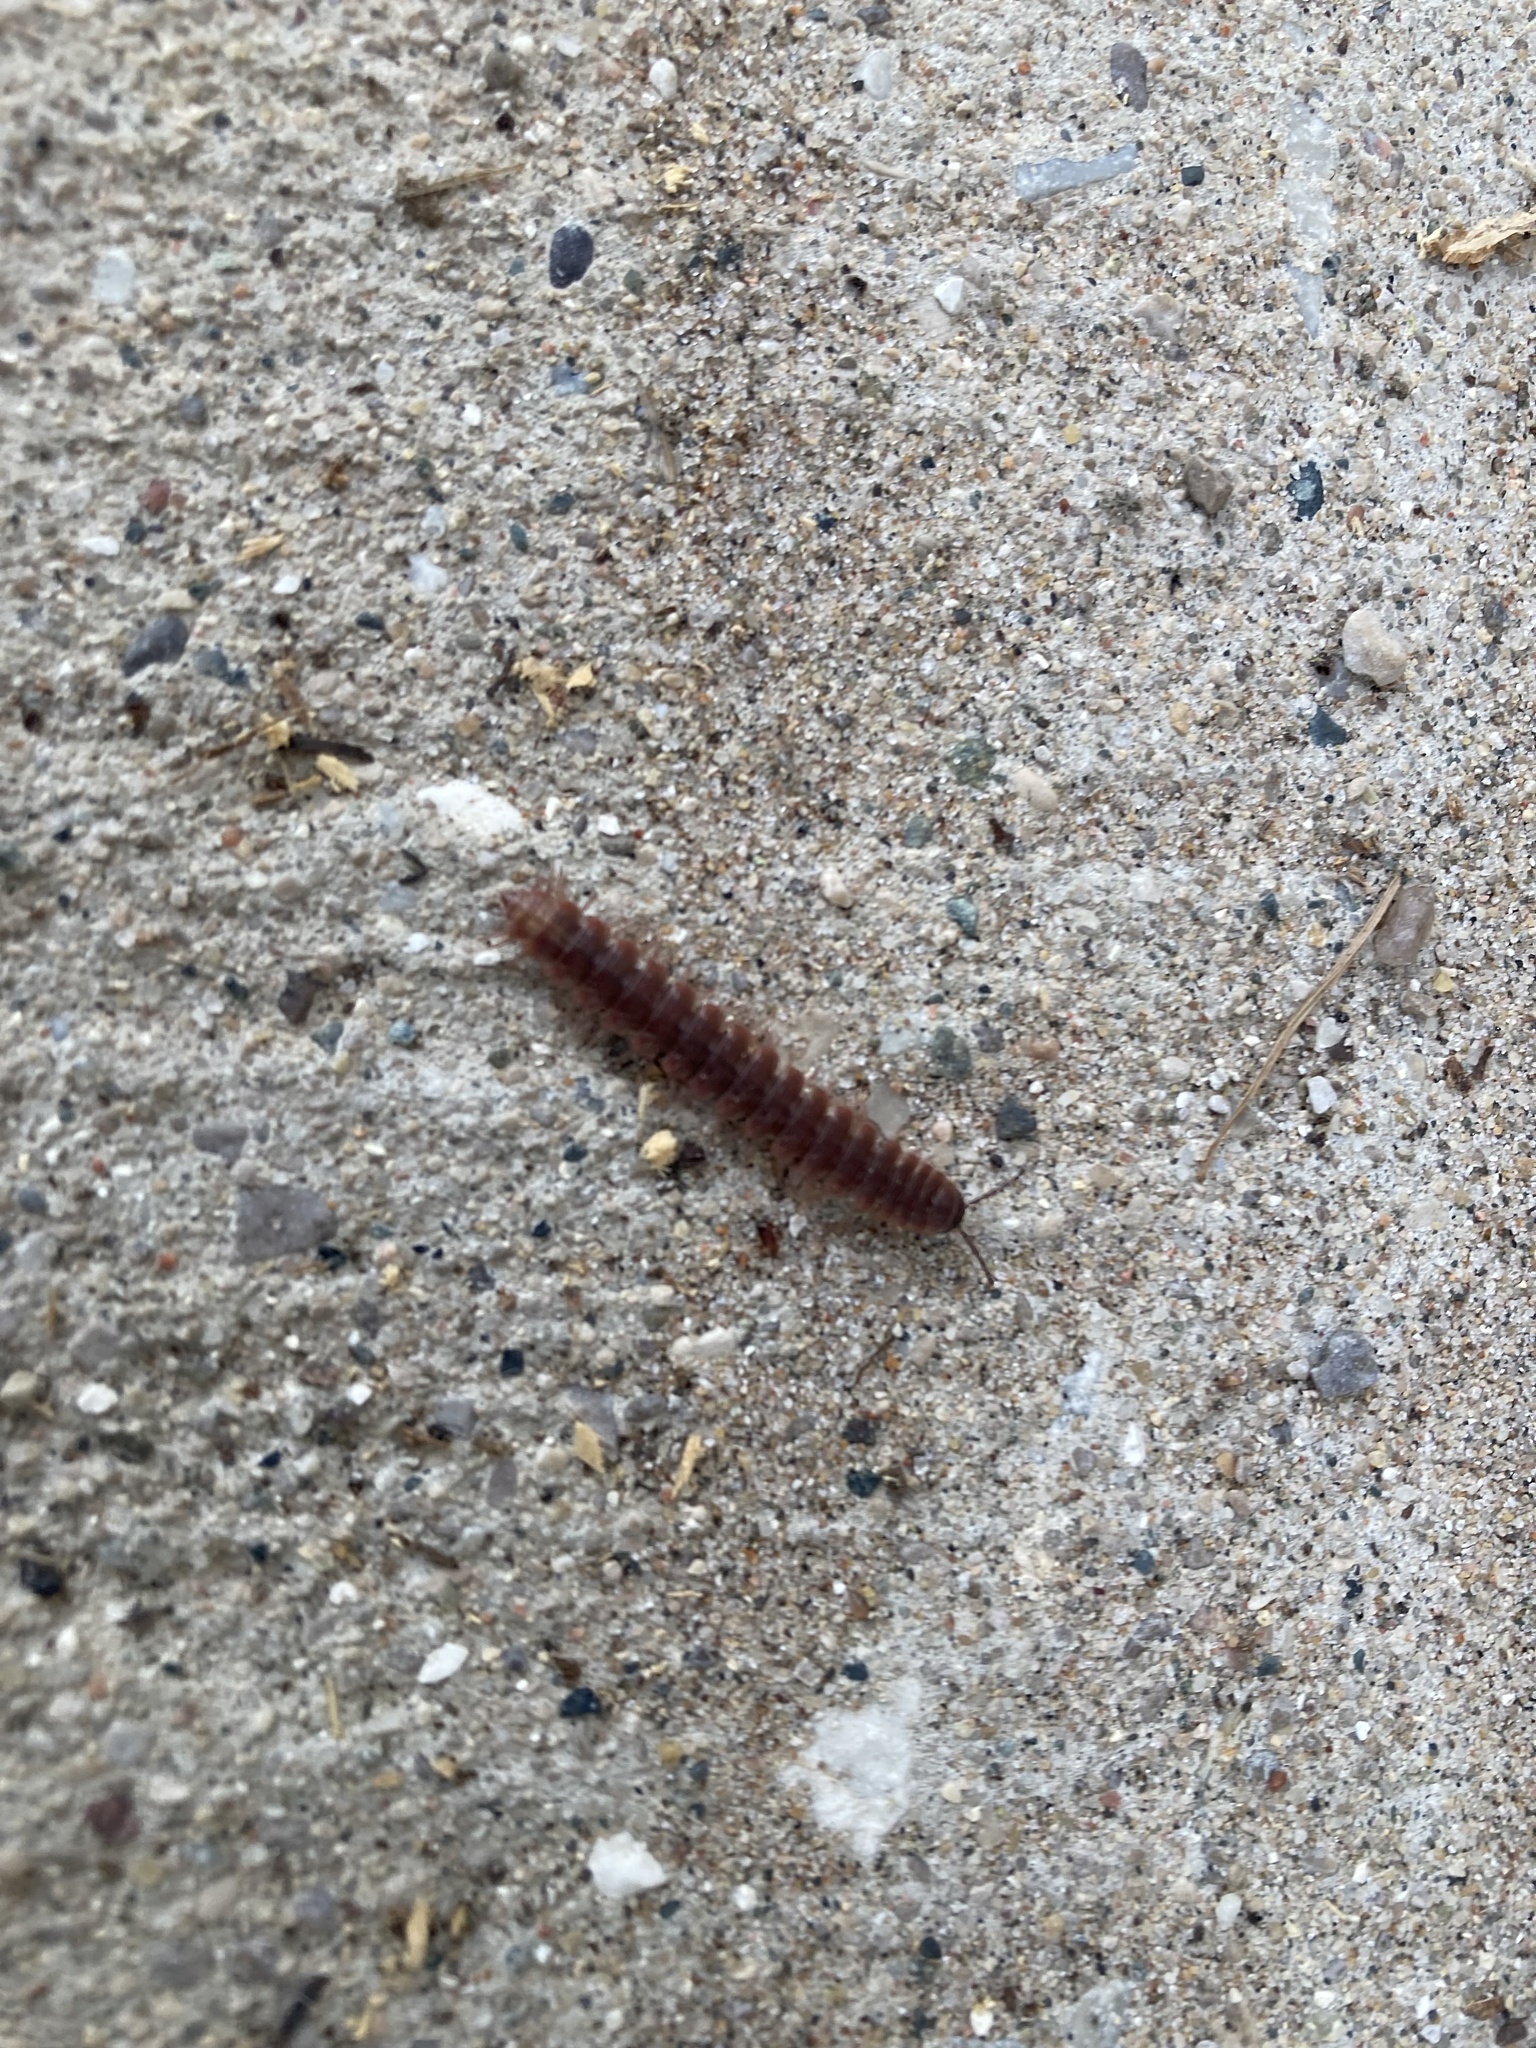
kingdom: Animalia
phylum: Arthropoda
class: Diplopoda
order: Polydesmida
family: Polydesmidae
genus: Pseudopolydesmus
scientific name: Pseudopolydesmus serratus
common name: Common pink flat-back millipede
